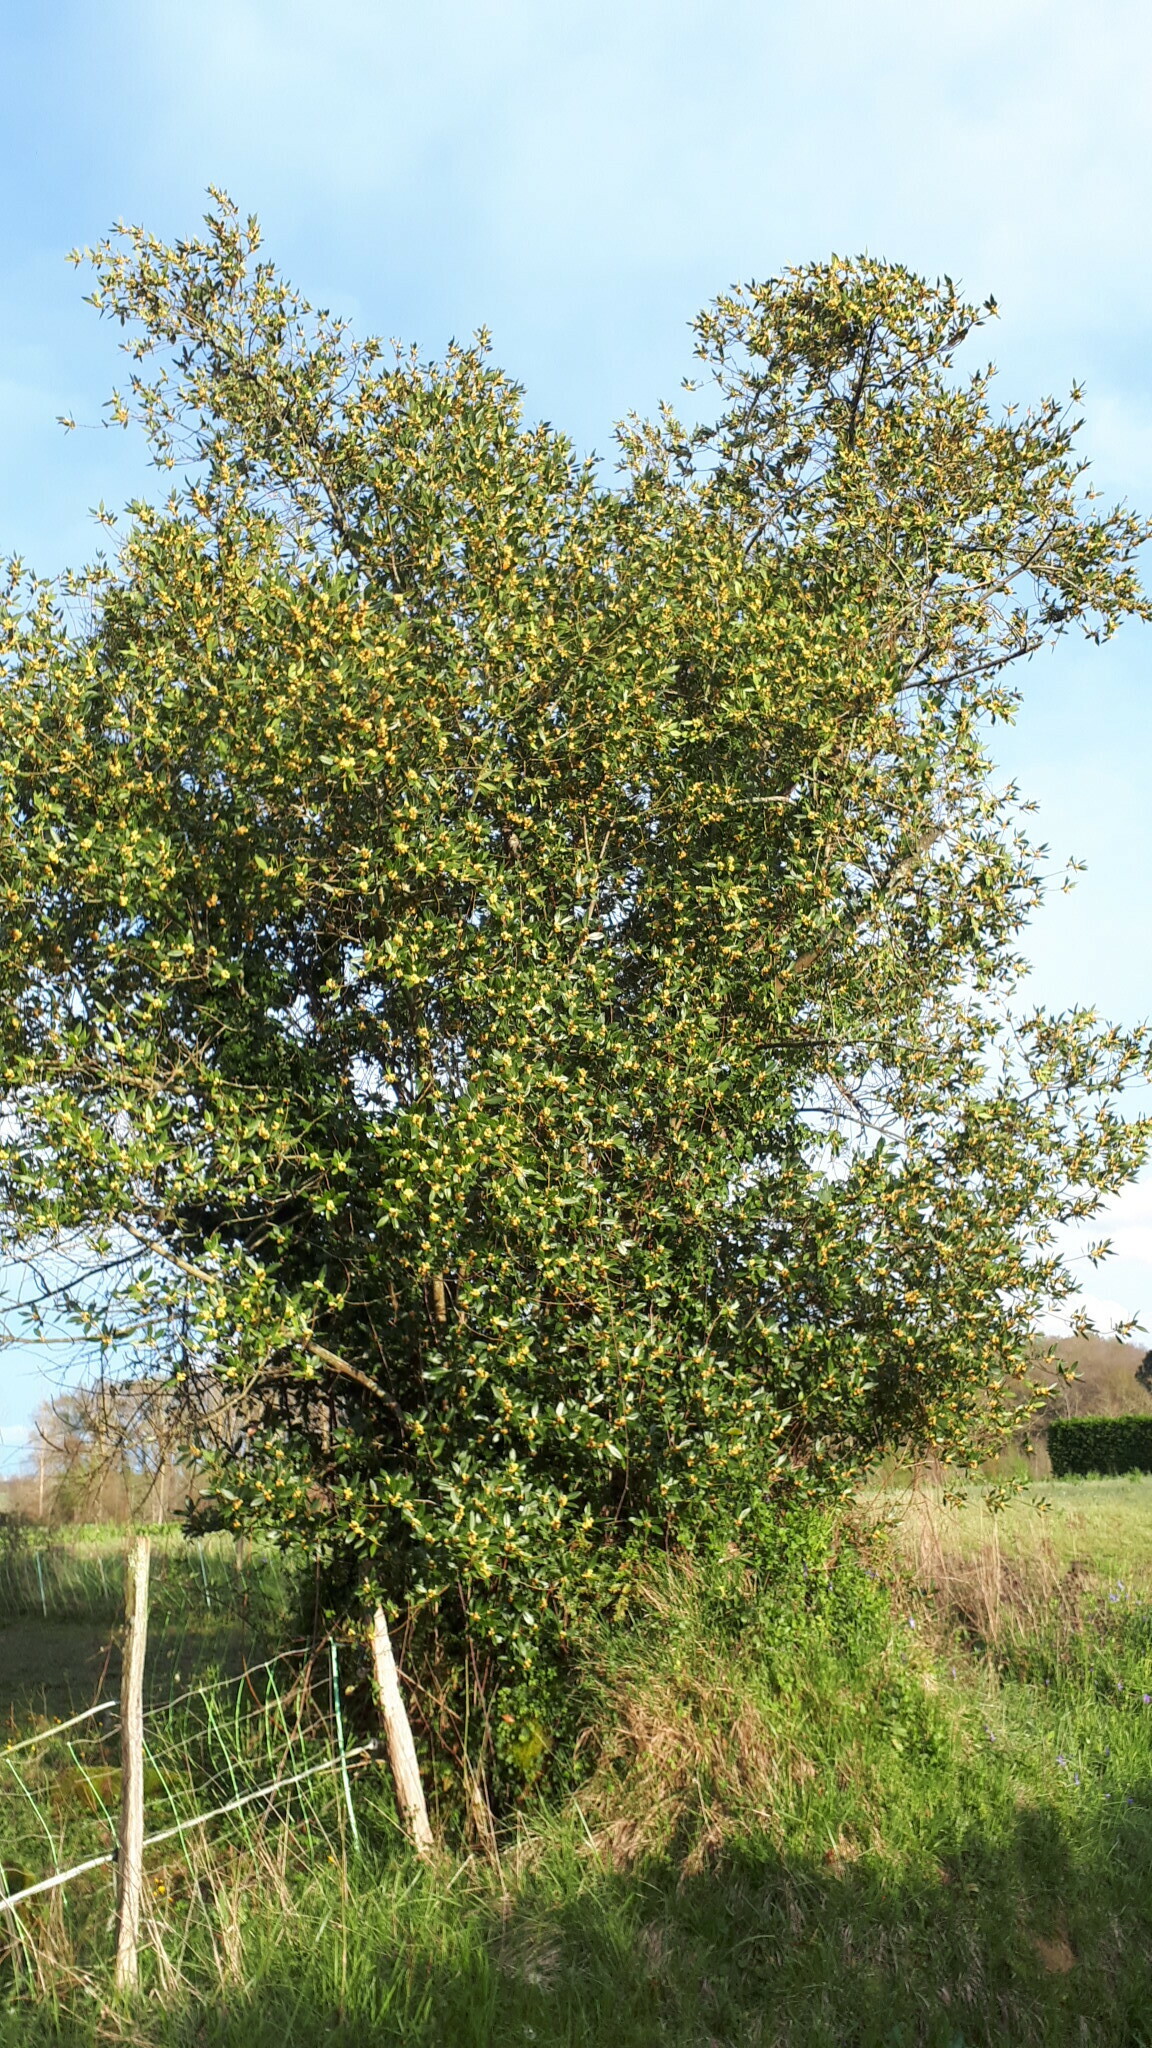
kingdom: Plantae
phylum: Tracheophyta
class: Magnoliopsida
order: Laurales
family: Lauraceae
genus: Laurus
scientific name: Laurus nobilis
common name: Bay
